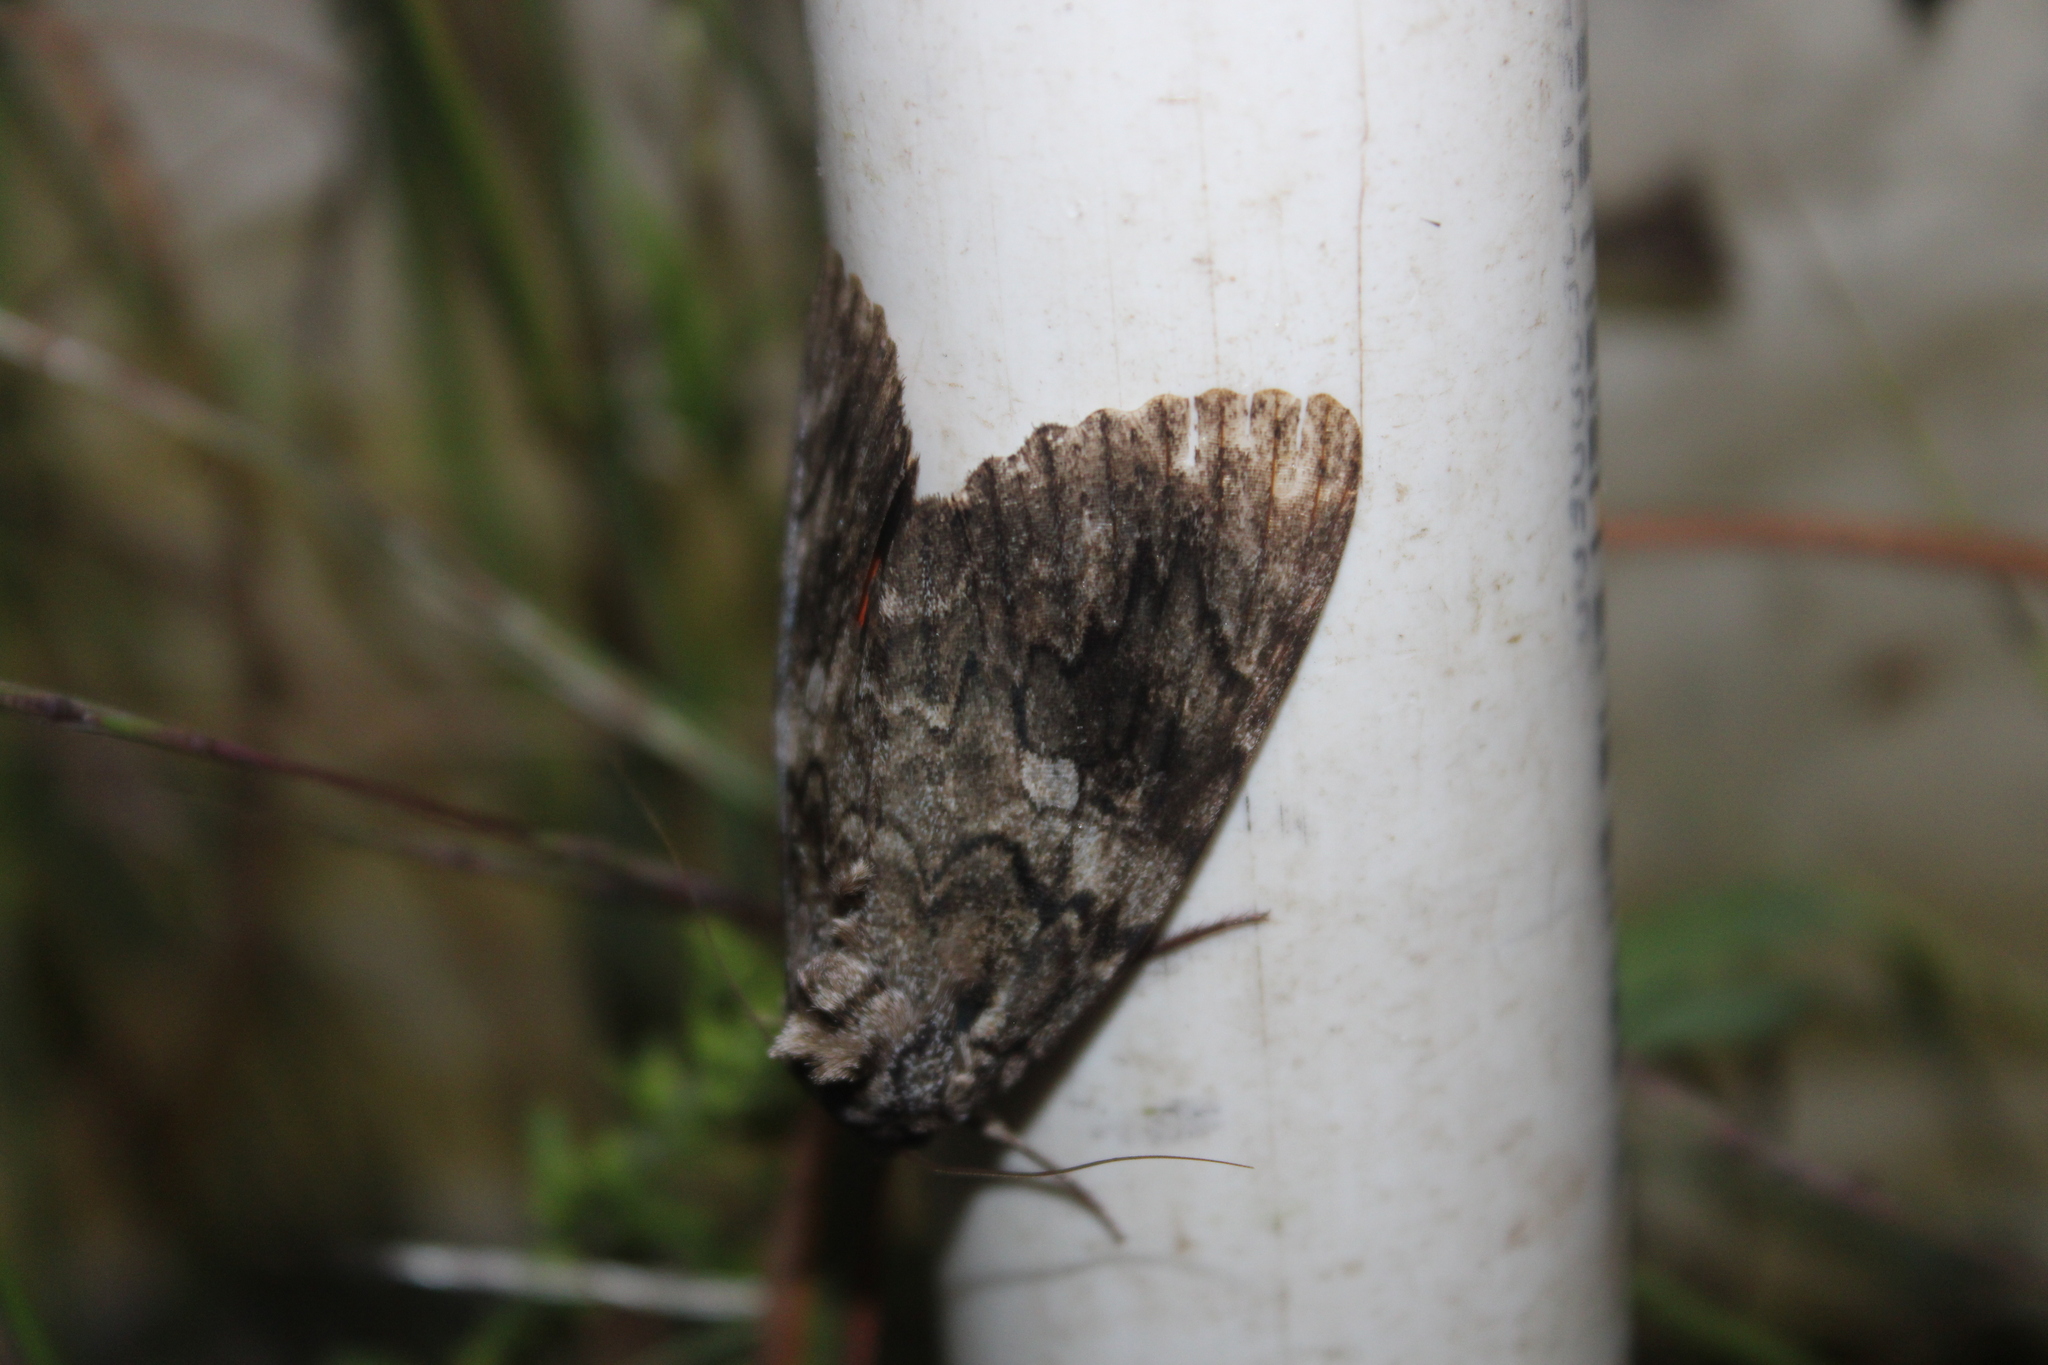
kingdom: Animalia
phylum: Arthropoda
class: Insecta
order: Lepidoptera
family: Erebidae
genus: Catocala
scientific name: Catocala ilia
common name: Ilia underwing
